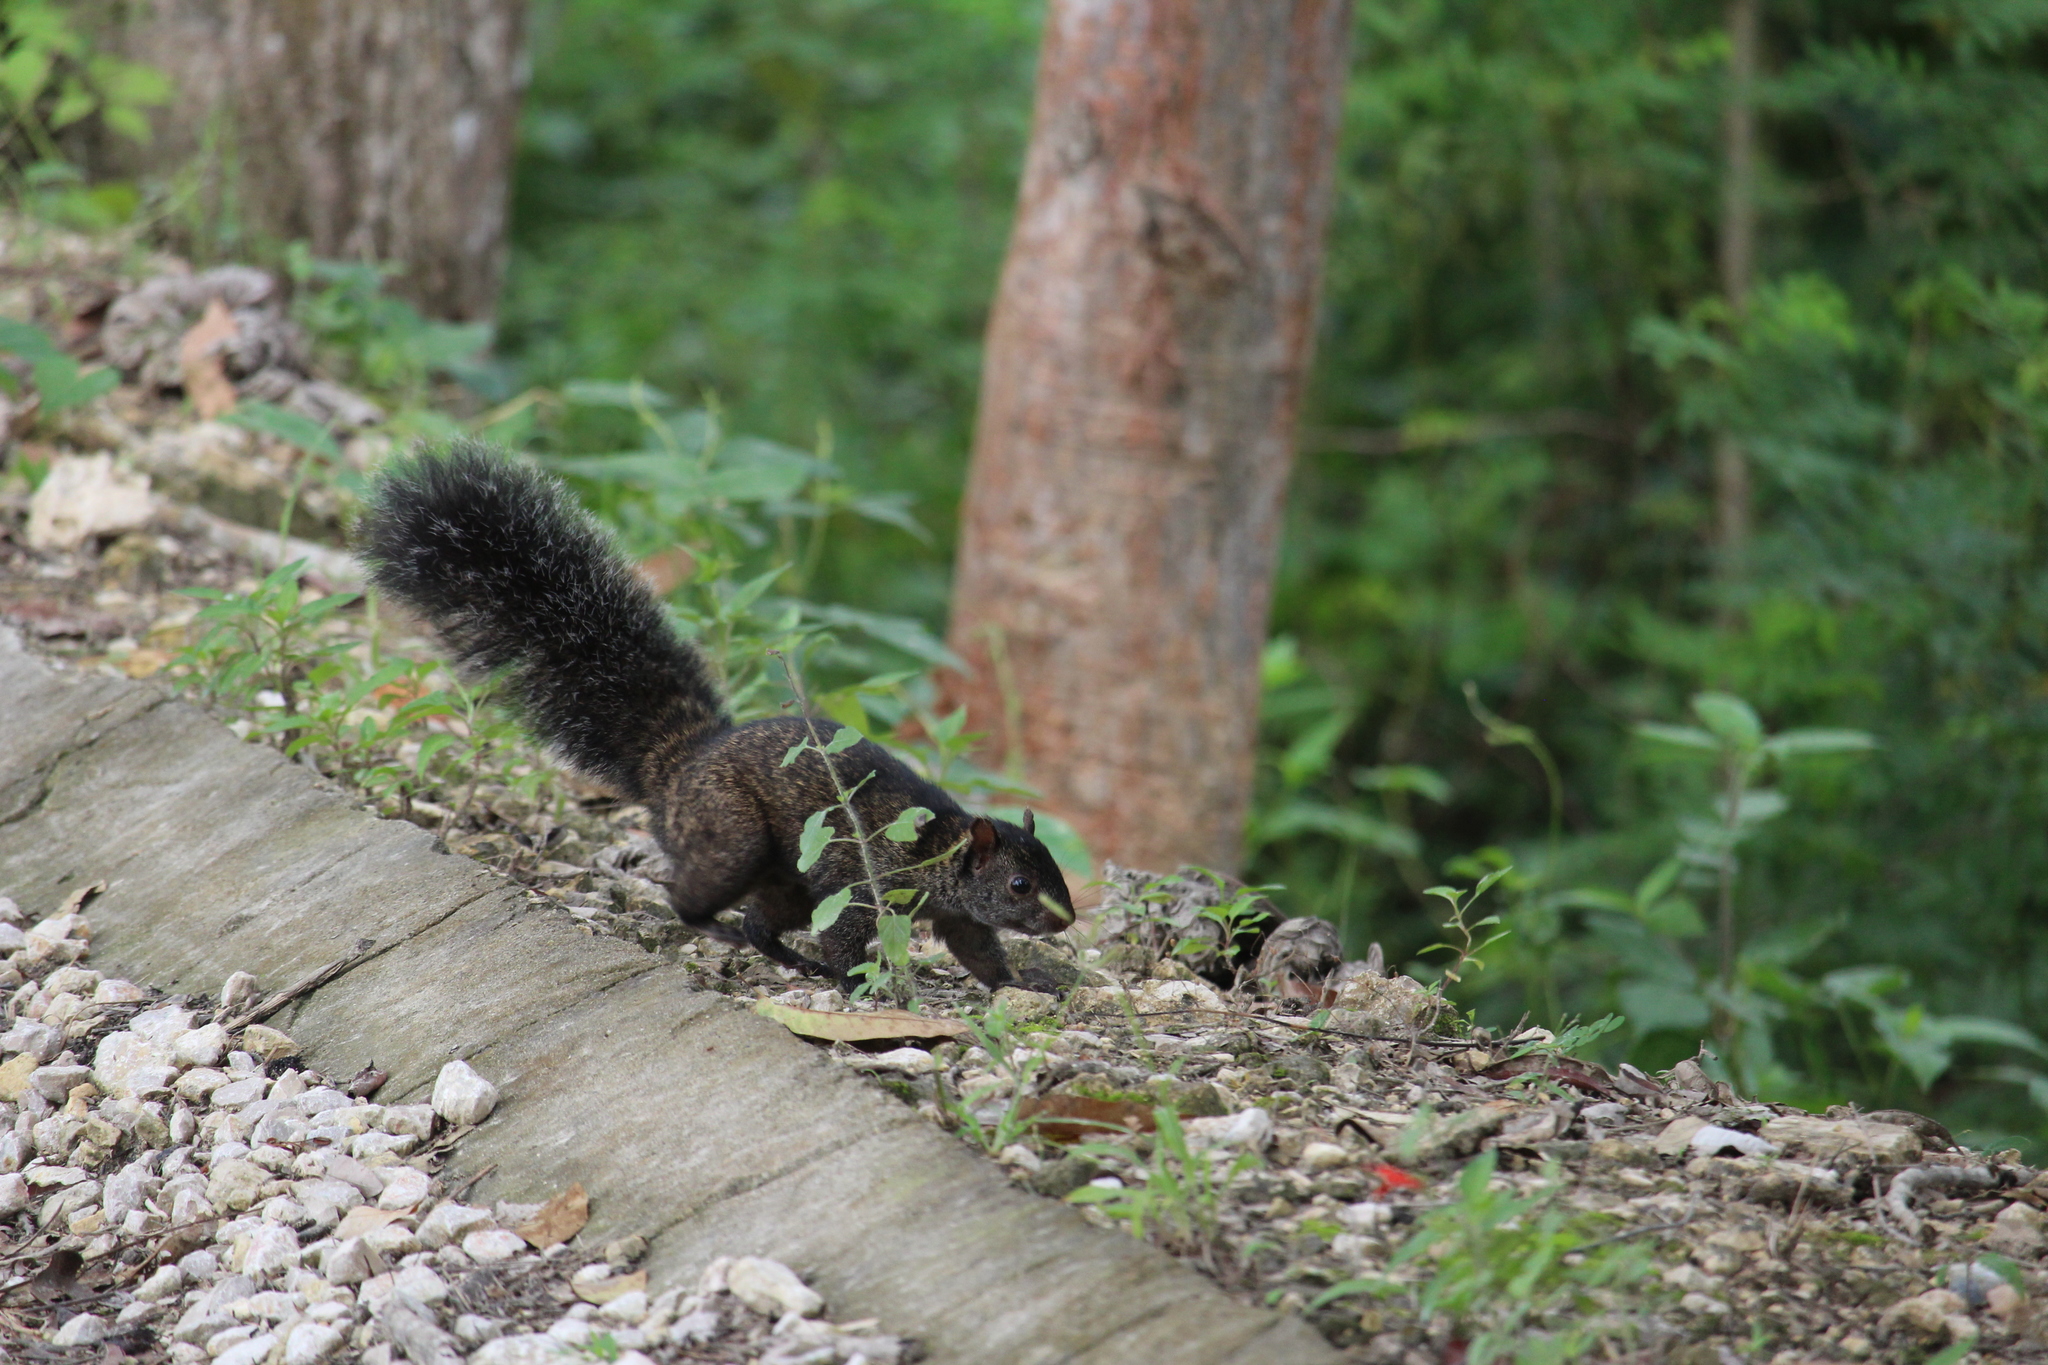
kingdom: Animalia
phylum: Chordata
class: Mammalia
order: Rodentia
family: Sciuridae
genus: Sciurus
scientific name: Sciurus yucatanensis
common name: Yucatan squirrel
